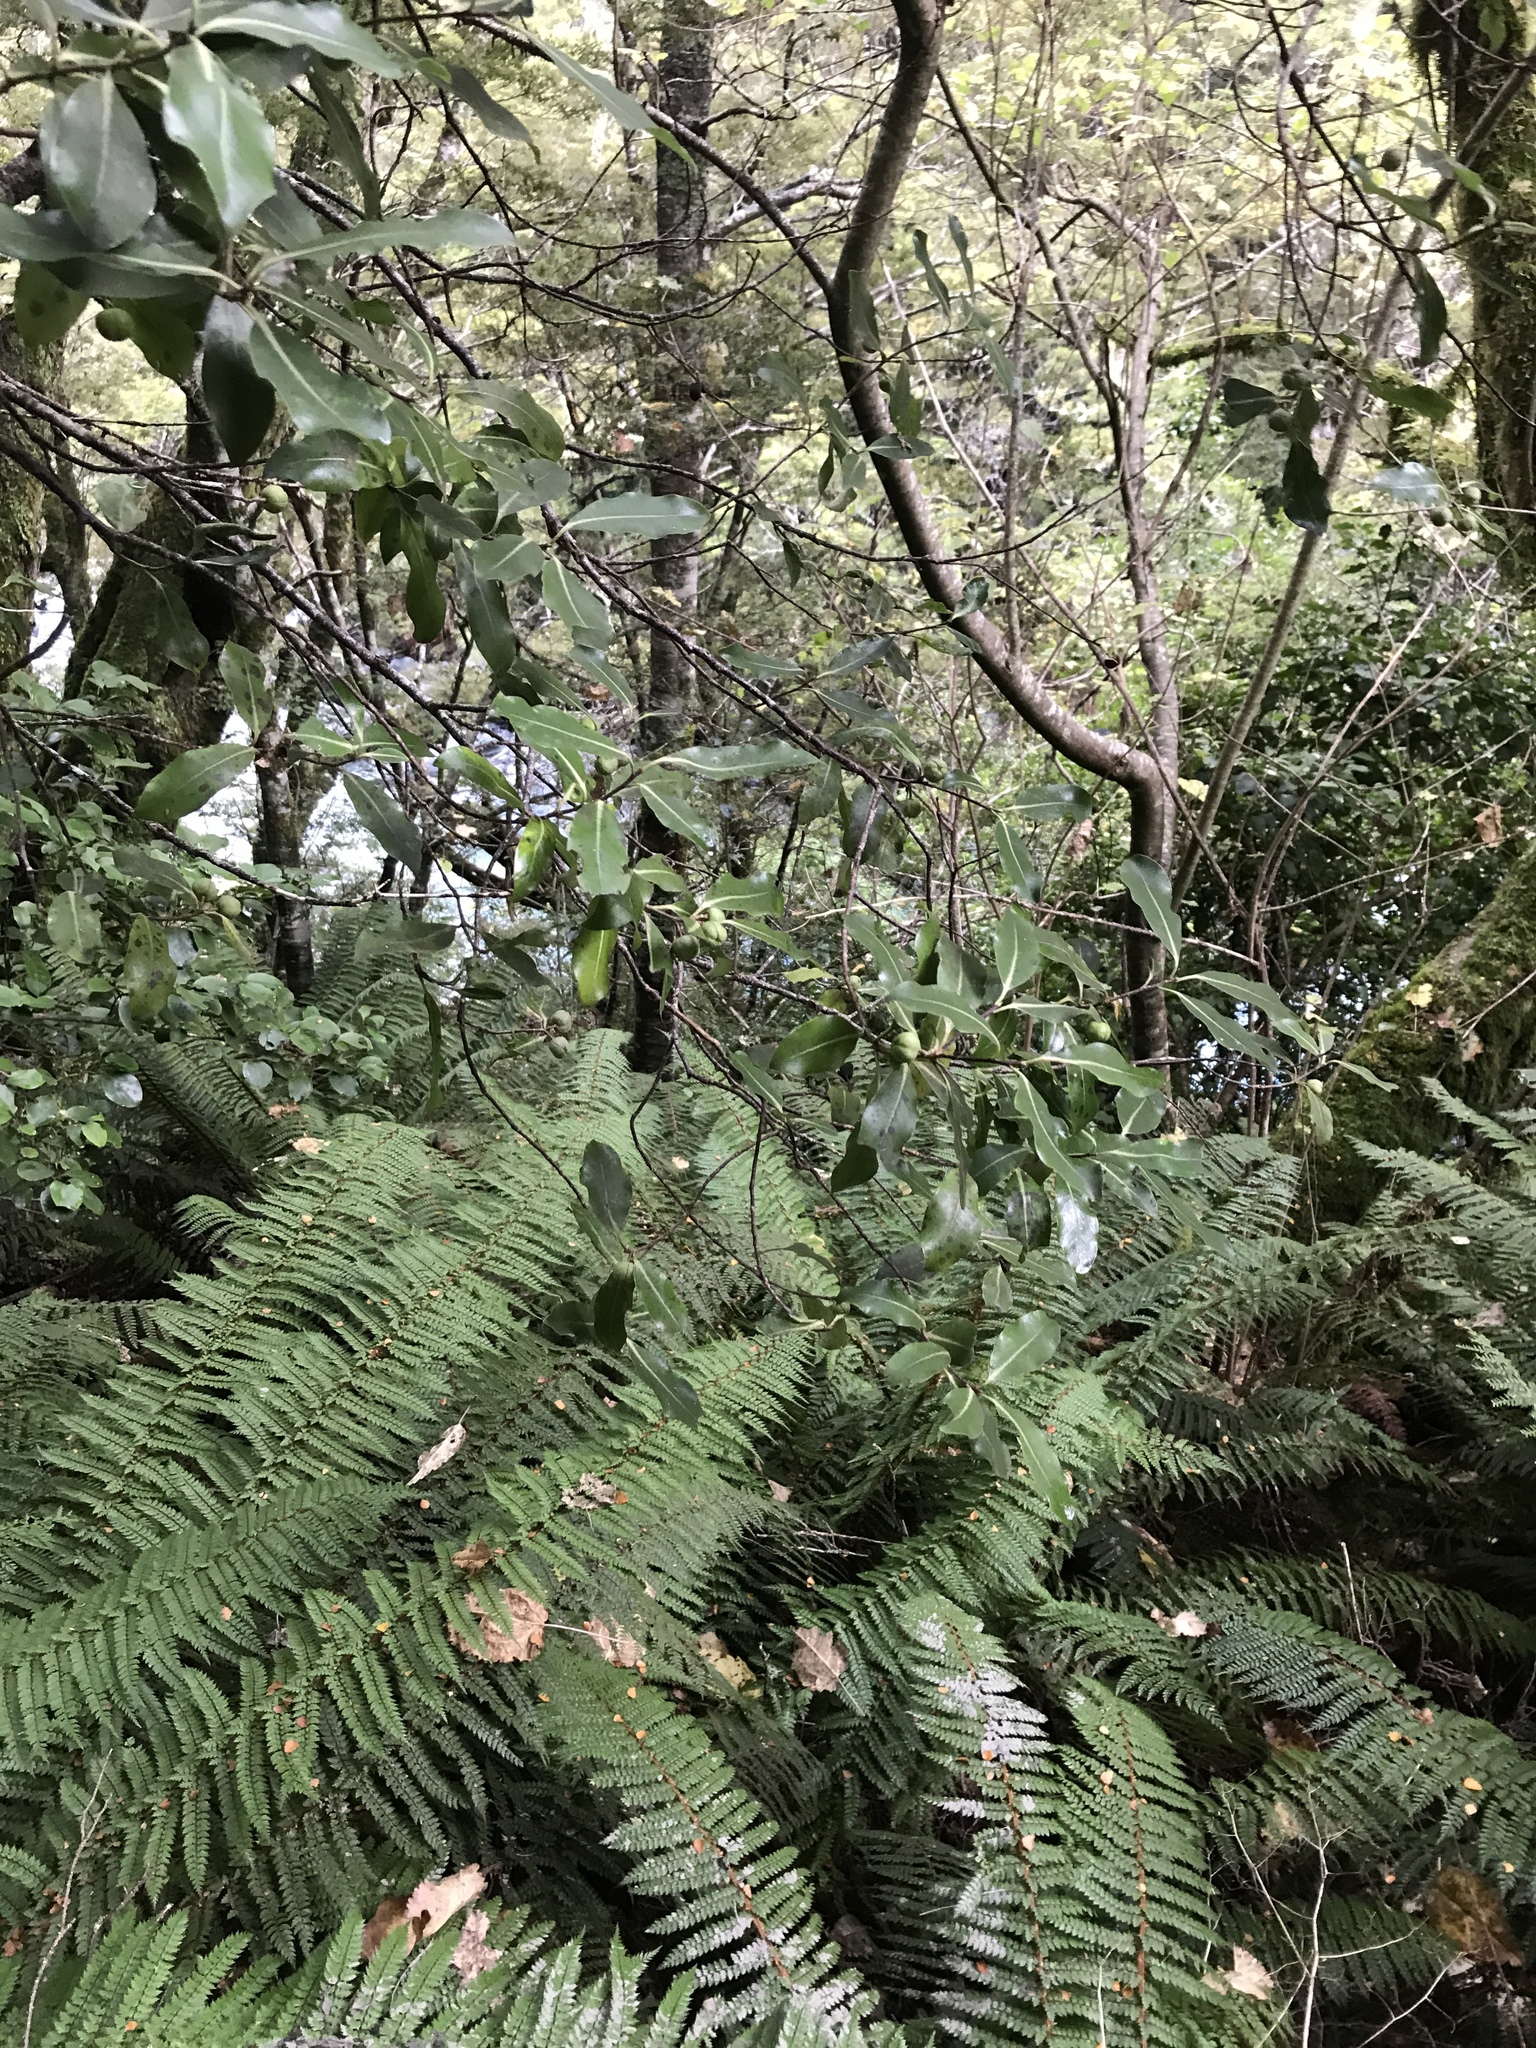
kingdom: Plantae
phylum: Tracheophyta
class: Magnoliopsida
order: Apiales
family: Pittosporaceae
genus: Pittosporum
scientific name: Pittosporum tenuifolium
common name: Kohuhu
